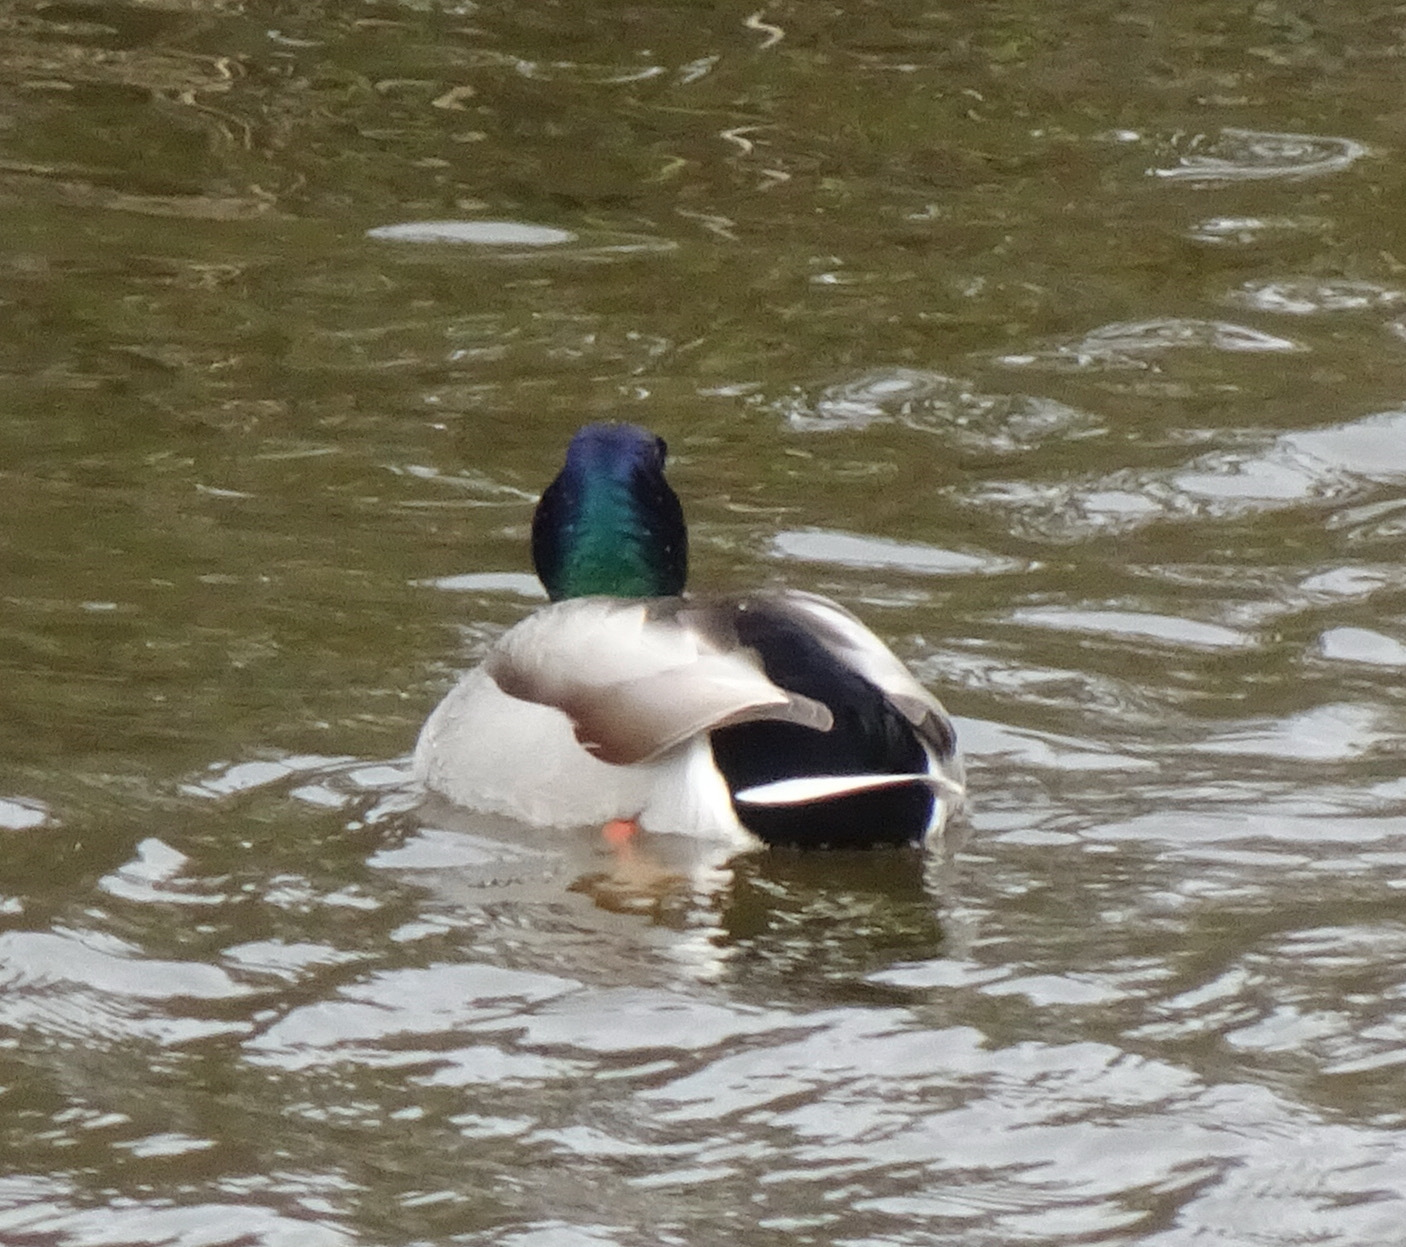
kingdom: Animalia
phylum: Chordata
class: Aves
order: Anseriformes
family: Anatidae
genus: Anas
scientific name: Anas platyrhynchos
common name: Mallard
